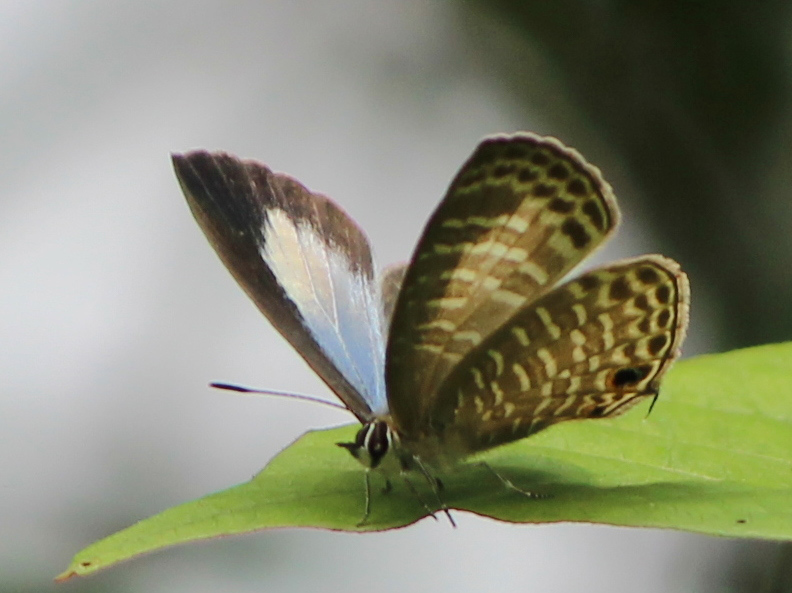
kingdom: Animalia
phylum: Arthropoda
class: Insecta
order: Lepidoptera
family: Lycaenidae
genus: Nacaduba
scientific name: Nacaduba kurava
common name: Transparent 6-line blue
